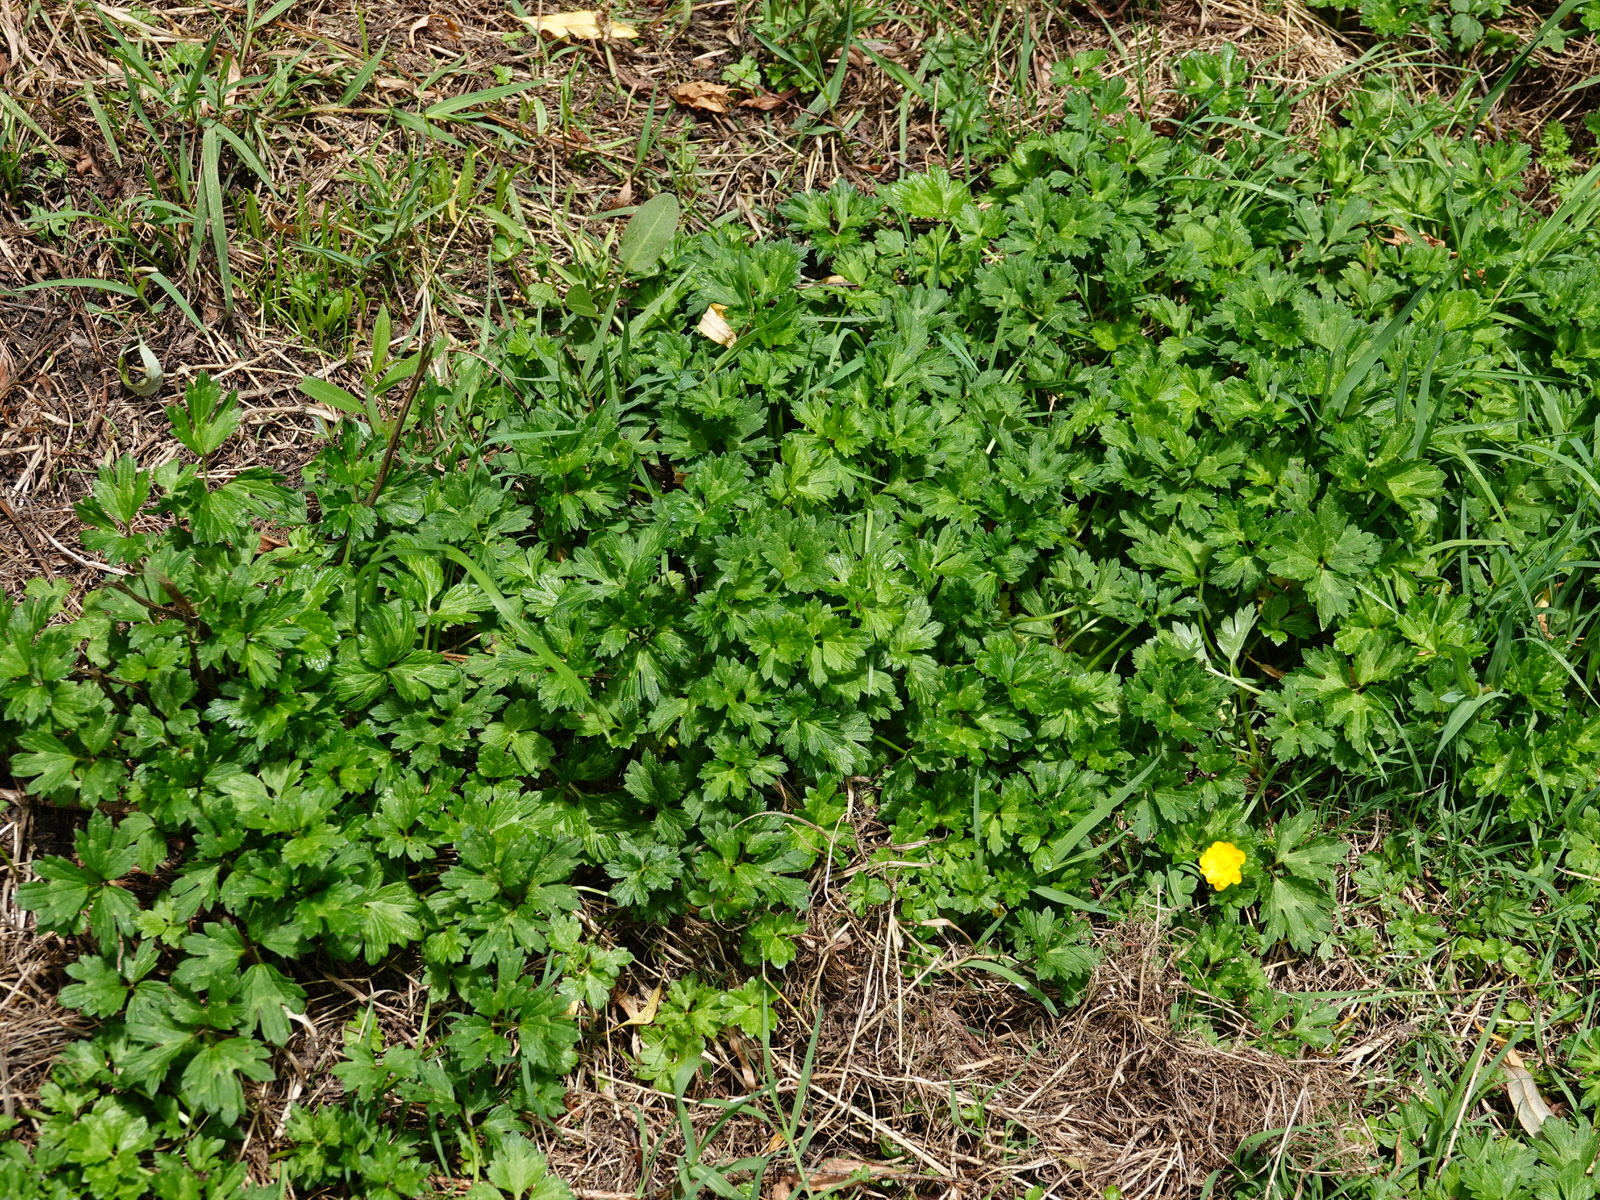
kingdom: Plantae
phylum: Tracheophyta
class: Magnoliopsida
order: Ranunculales
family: Ranunculaceae
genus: Ranunculus
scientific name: Ranunculus repens
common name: Creeping buttercup
